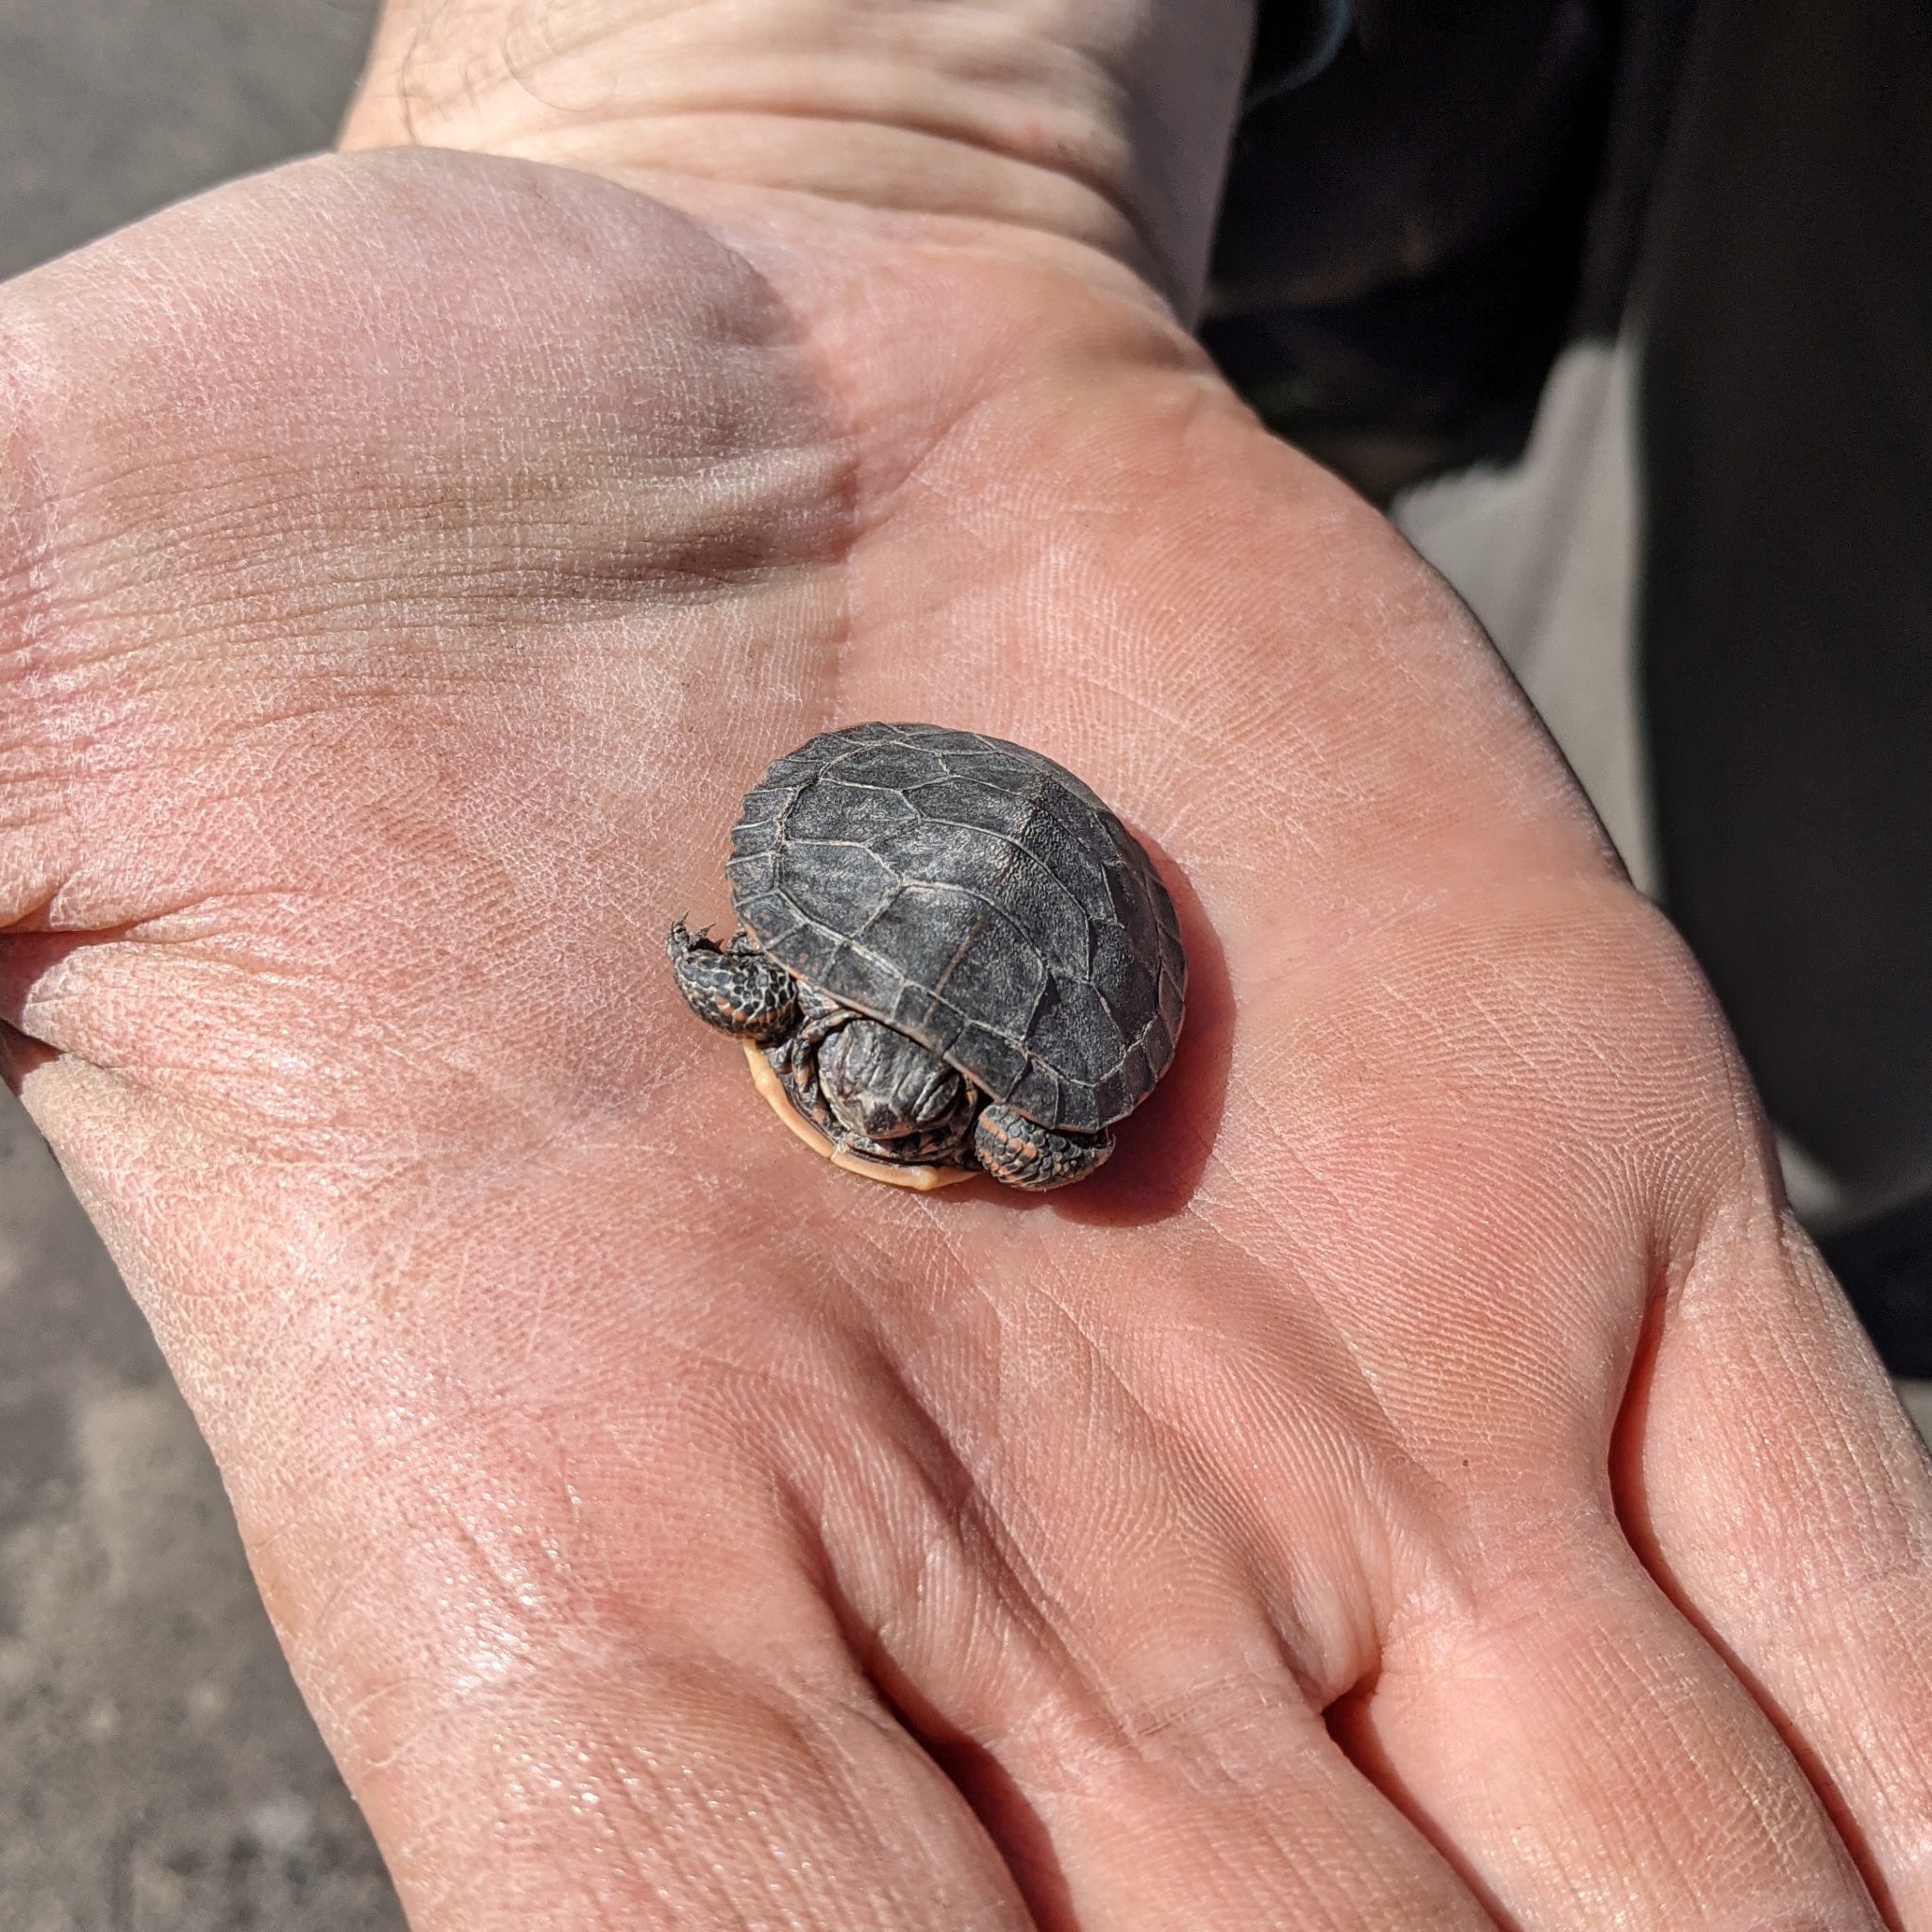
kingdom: Animalia
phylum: Chordata
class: Testudines
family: Emydidae
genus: Chrysemys
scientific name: Chrysemys picta
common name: Painted turtle
